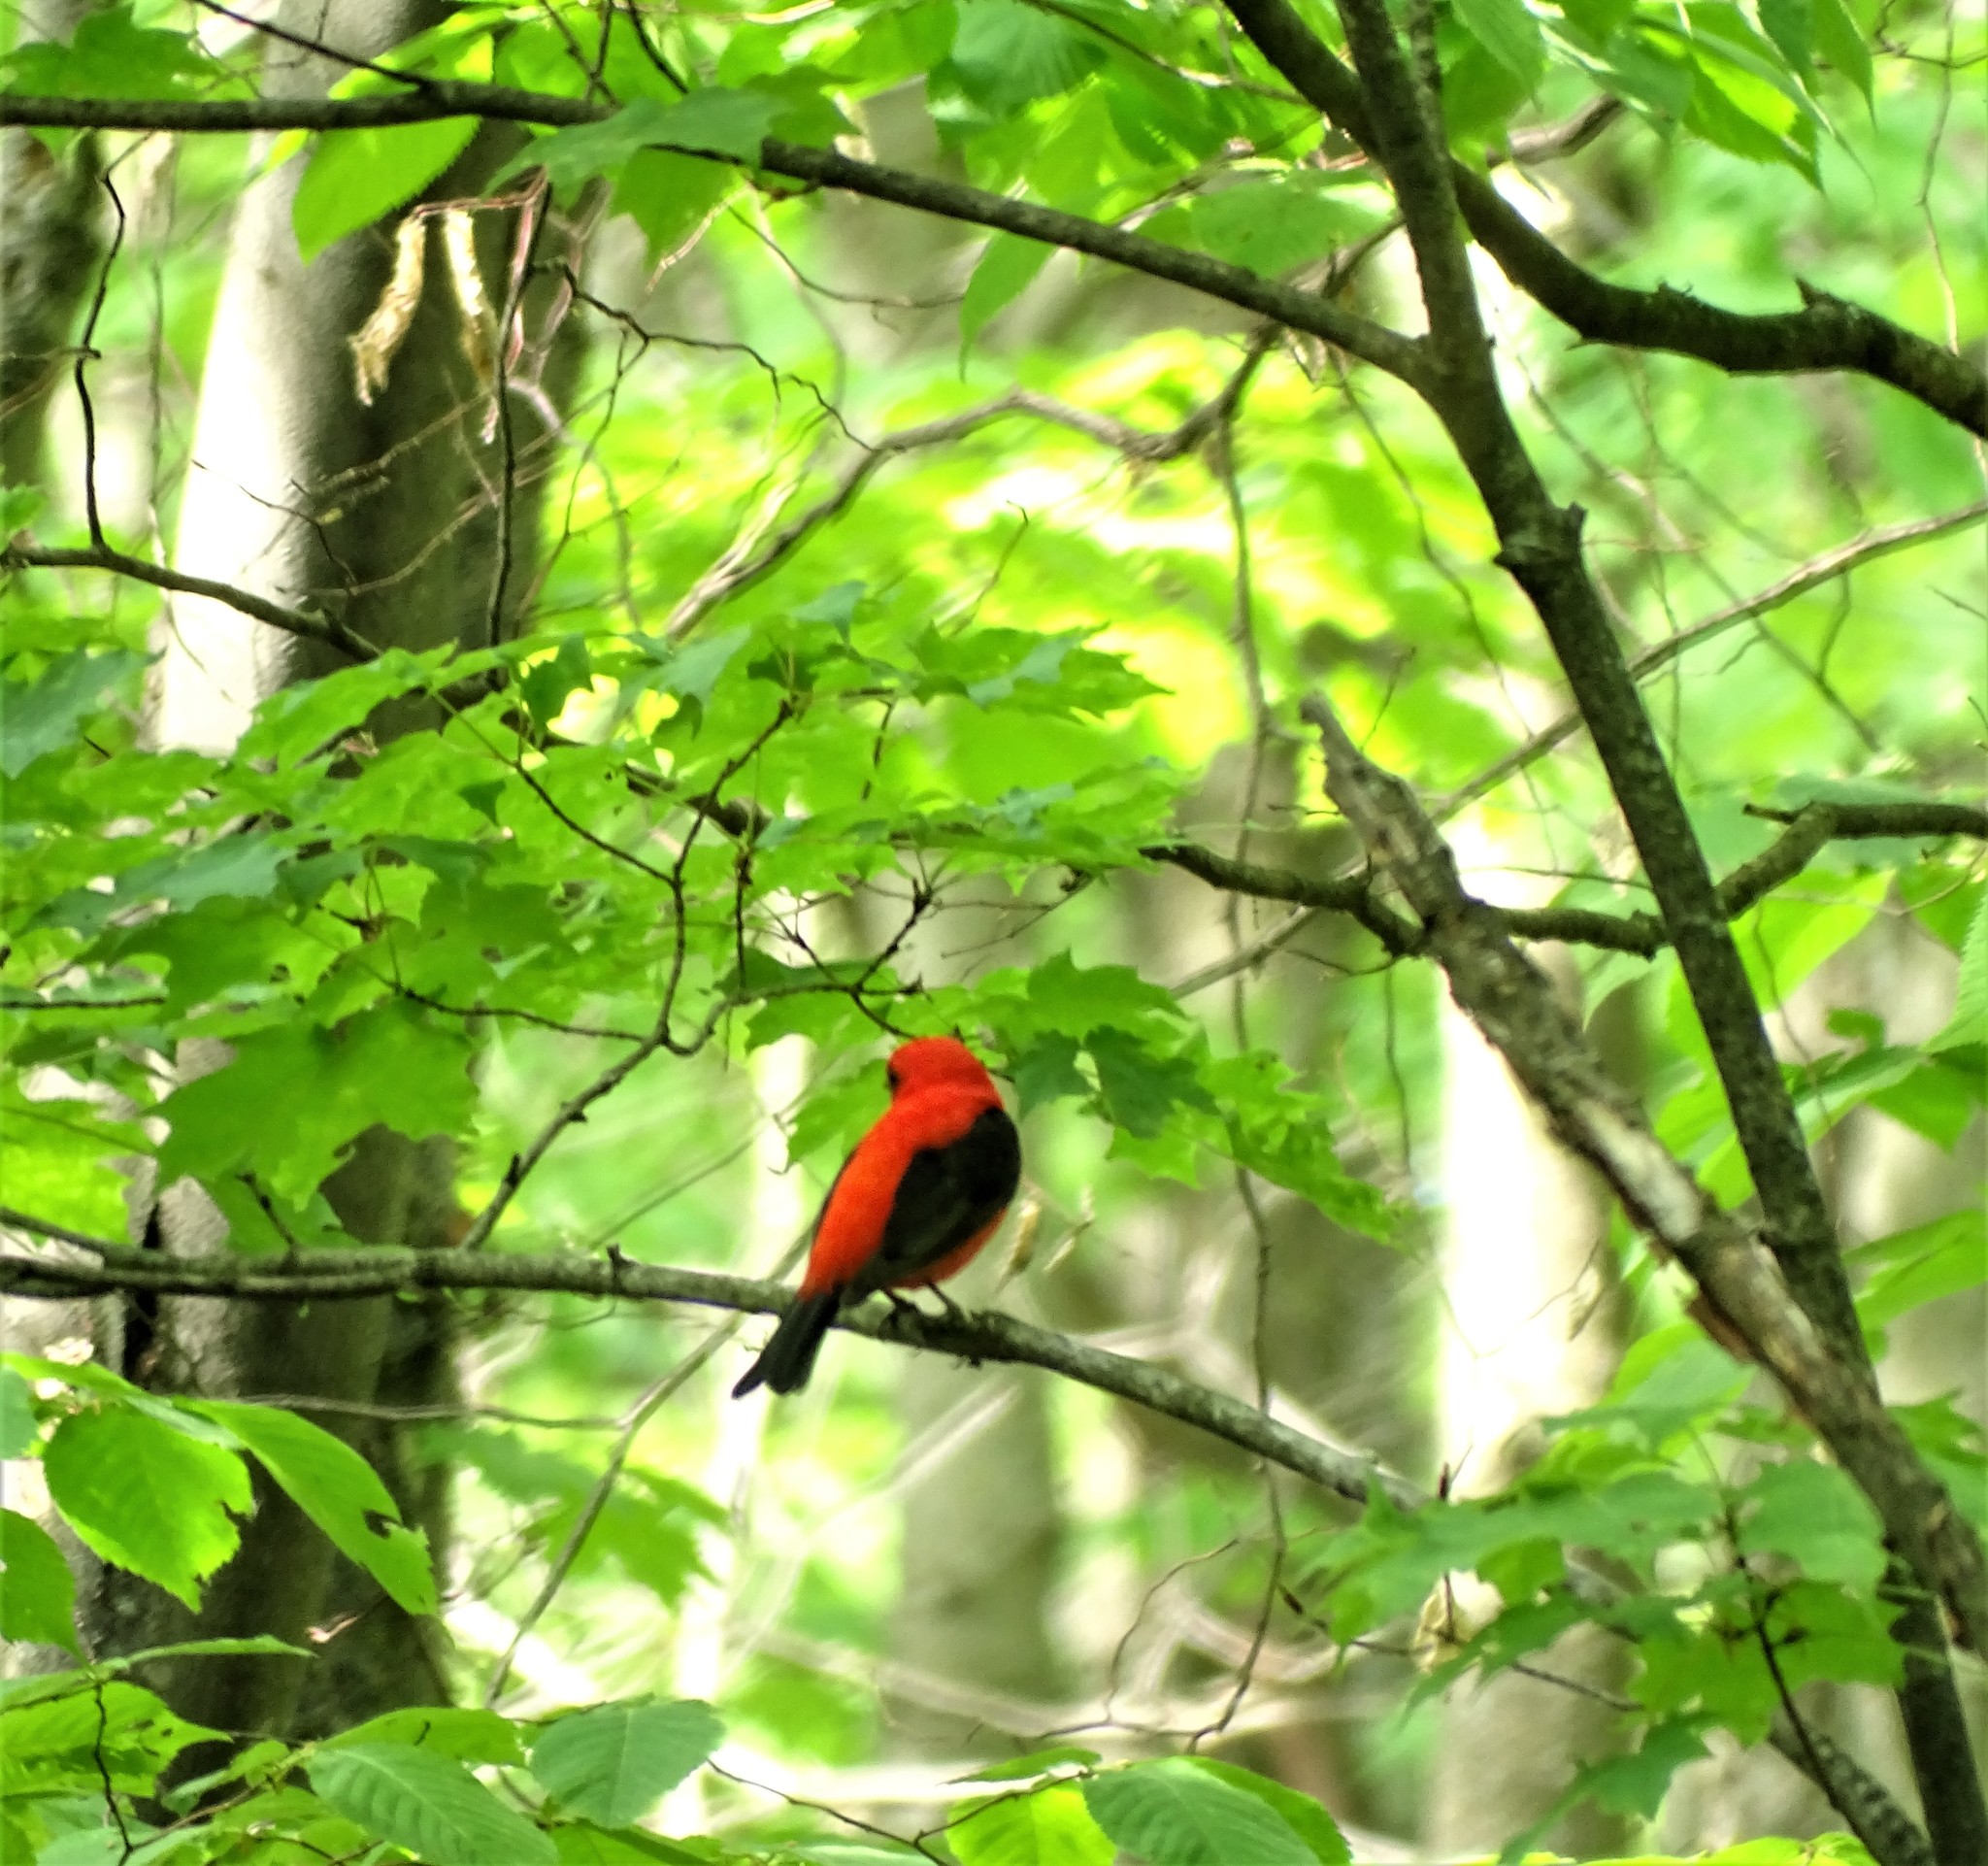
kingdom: Animalia
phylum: Chordata
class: Aves
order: Passeriformes
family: Cardinalidae
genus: Piranga
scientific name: Piranga olivacea
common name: Scarlet tanager
